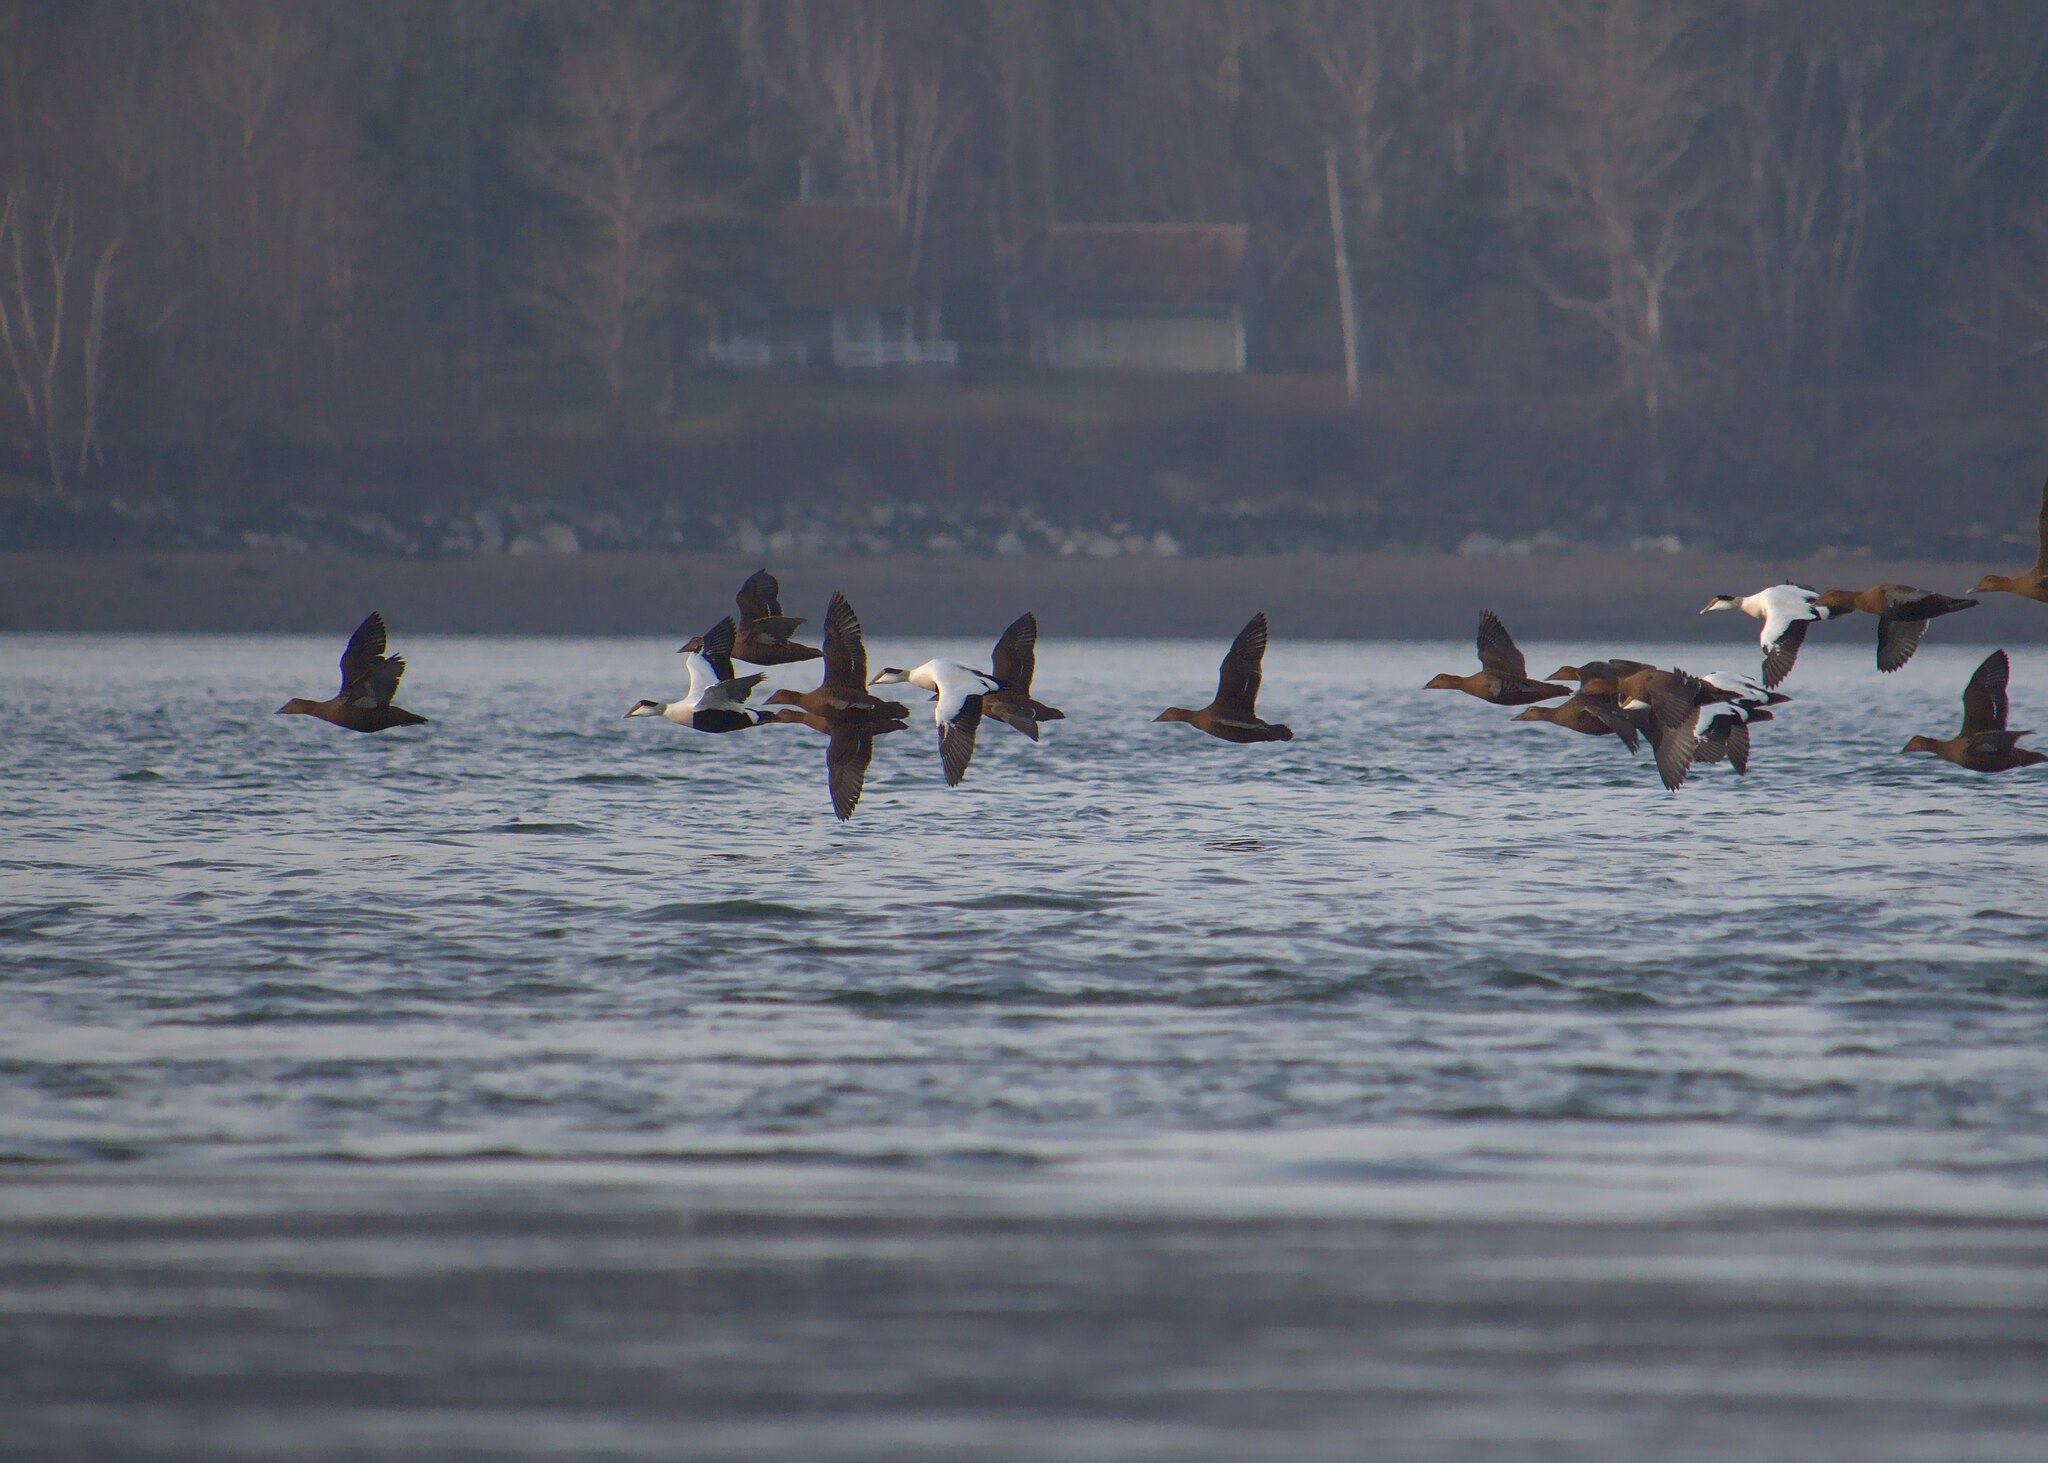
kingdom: Animalia
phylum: Chordata
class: Aves
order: Anseriformes
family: Anatidae
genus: Somateria
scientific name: Somateria mollissima
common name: Common eider
